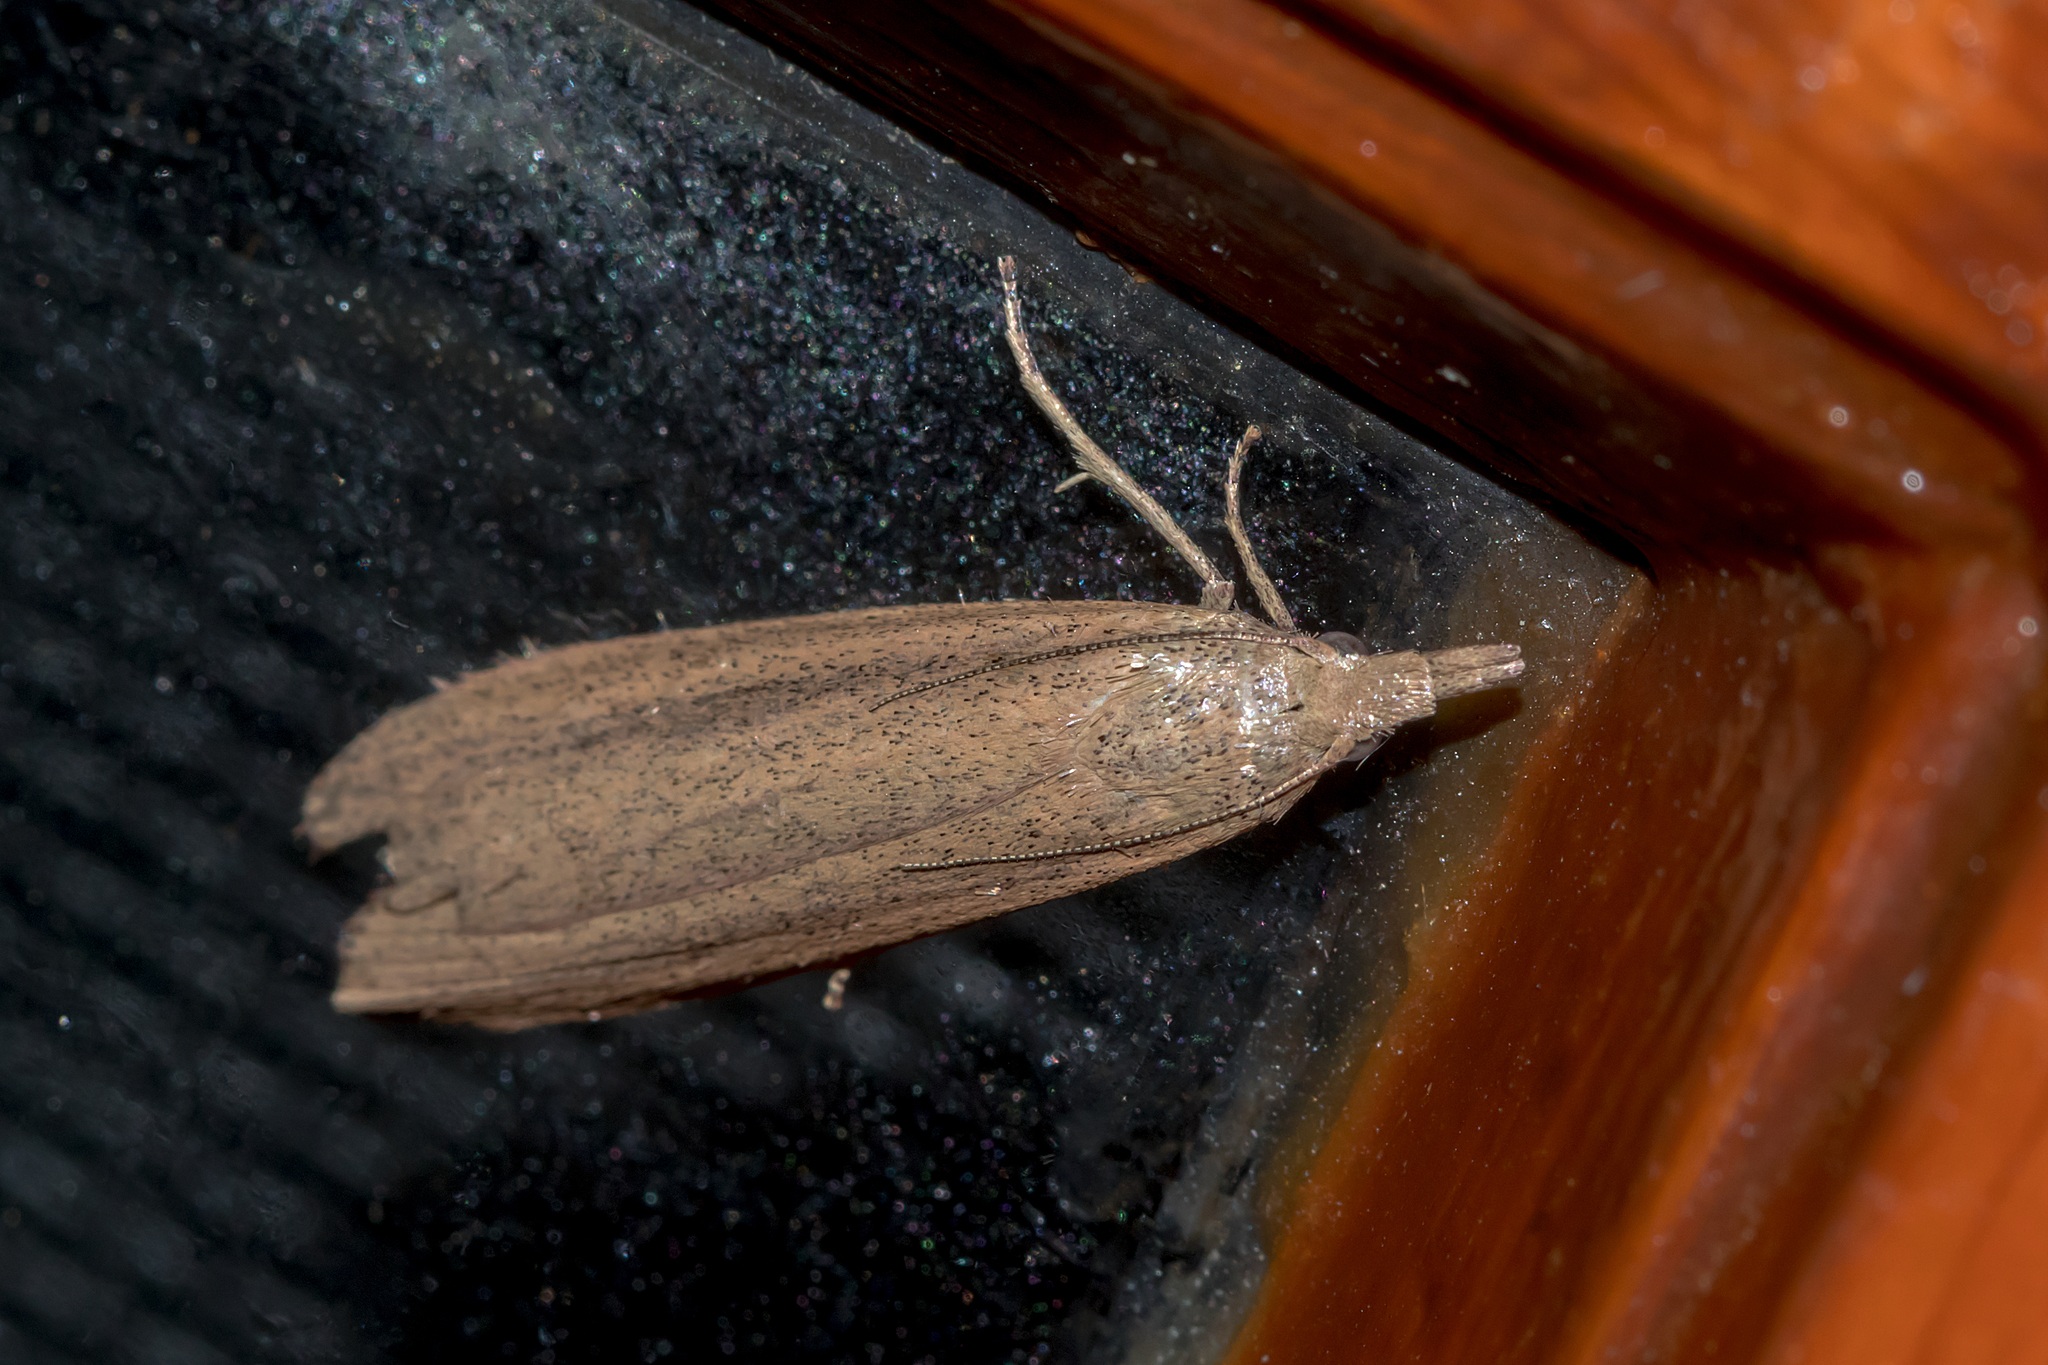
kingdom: Animalia
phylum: Arthropoda
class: Insecta
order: Lepidoptera
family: Pyralidae
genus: Meyriccia
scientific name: Meyriccia latro
